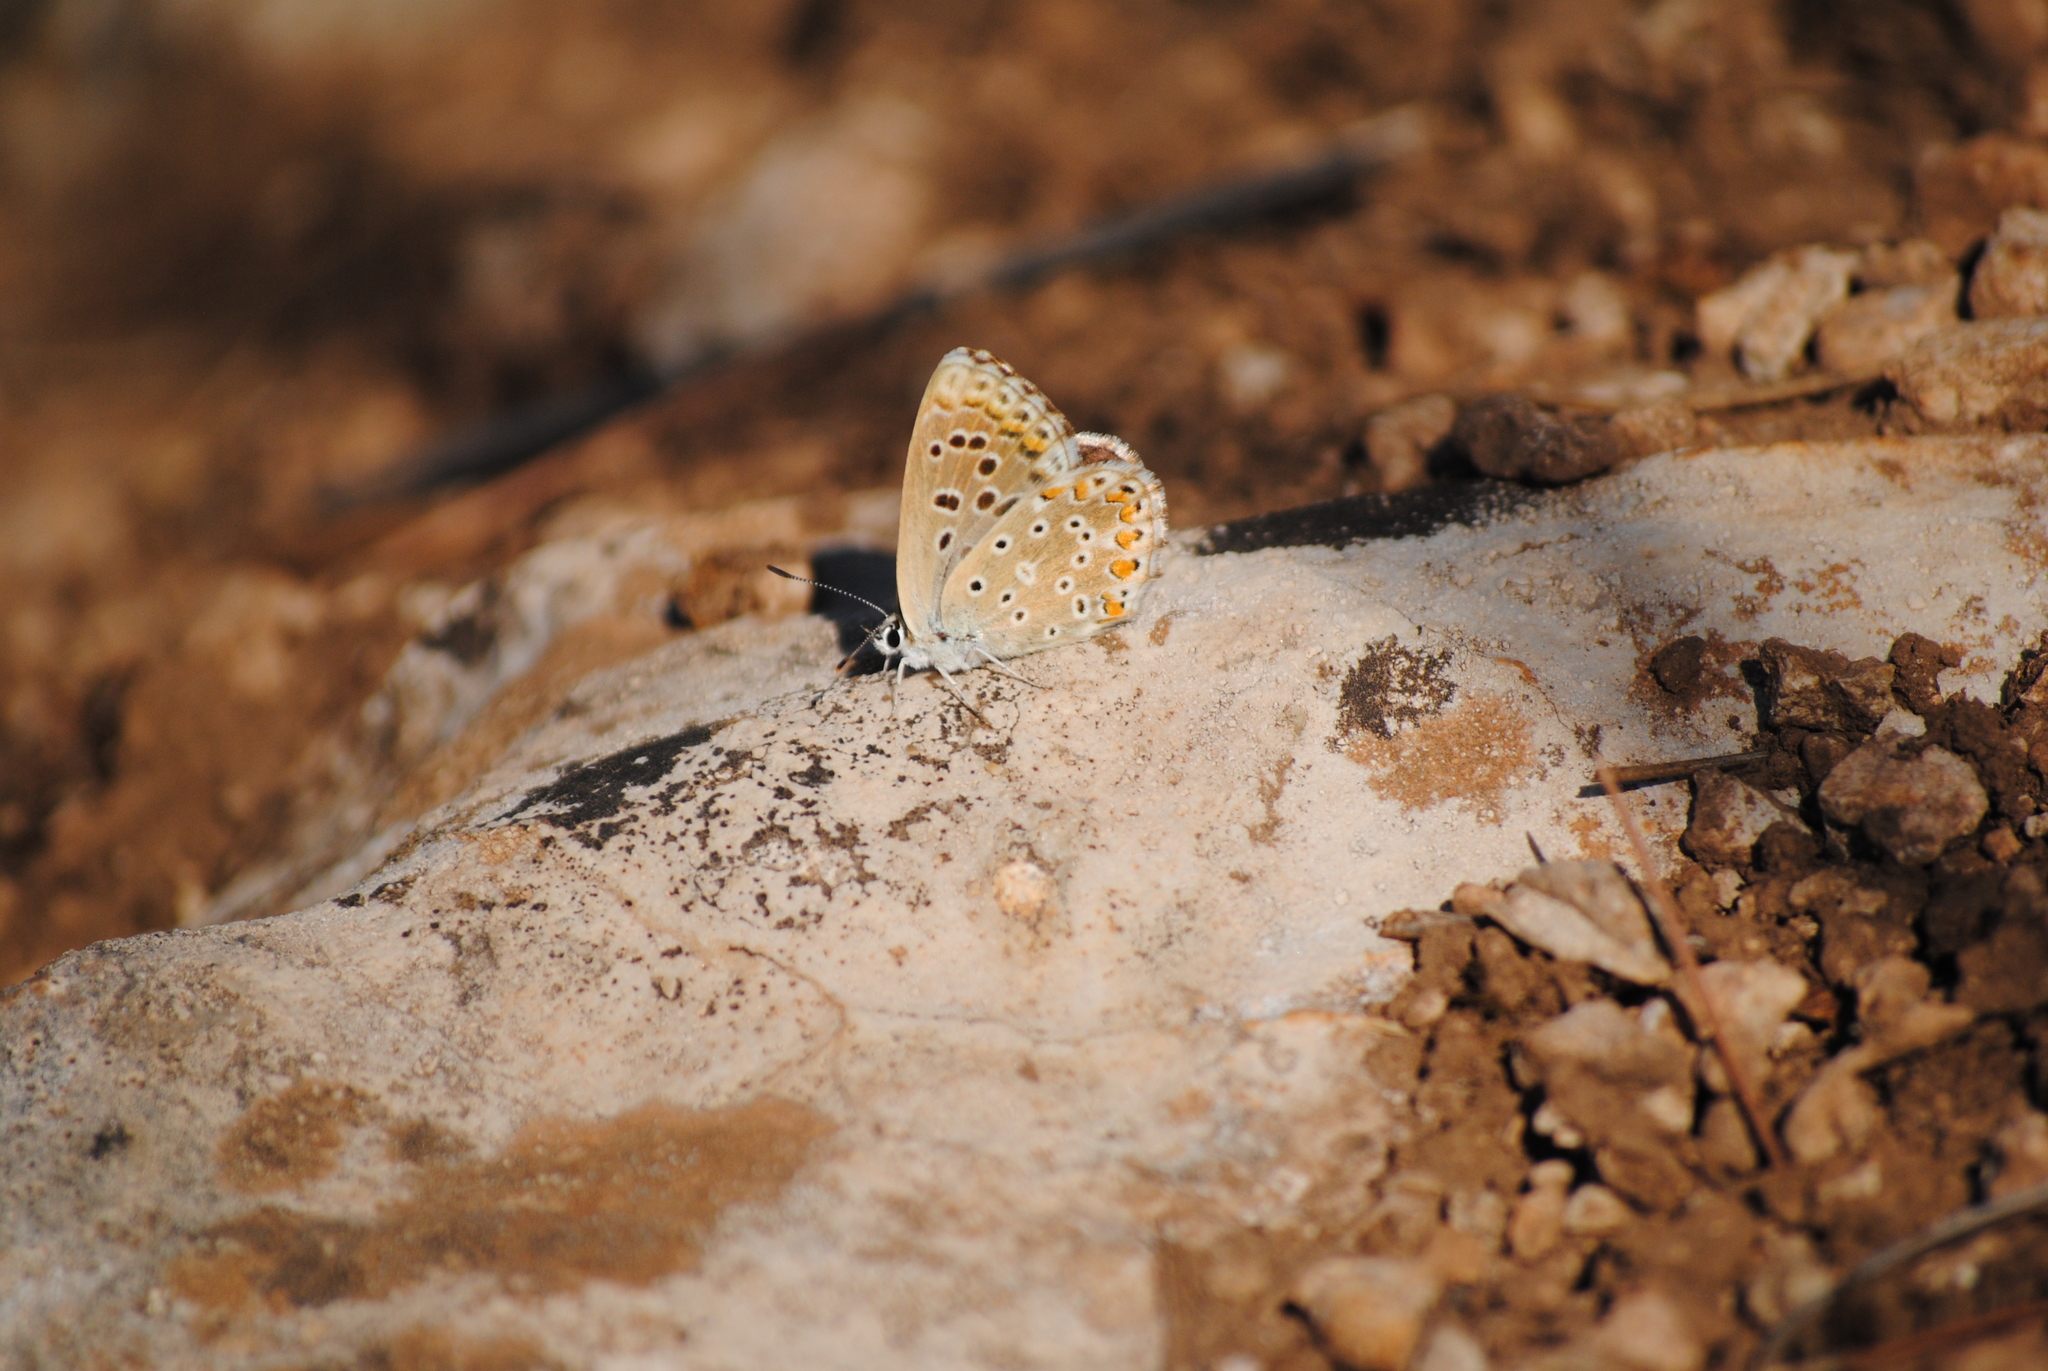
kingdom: Animalia
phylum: Arthropoda
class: Insecta
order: Lepidoptera
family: Lycaenidae
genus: Lysandra
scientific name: Lysandra bellargus
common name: Adonis blue
